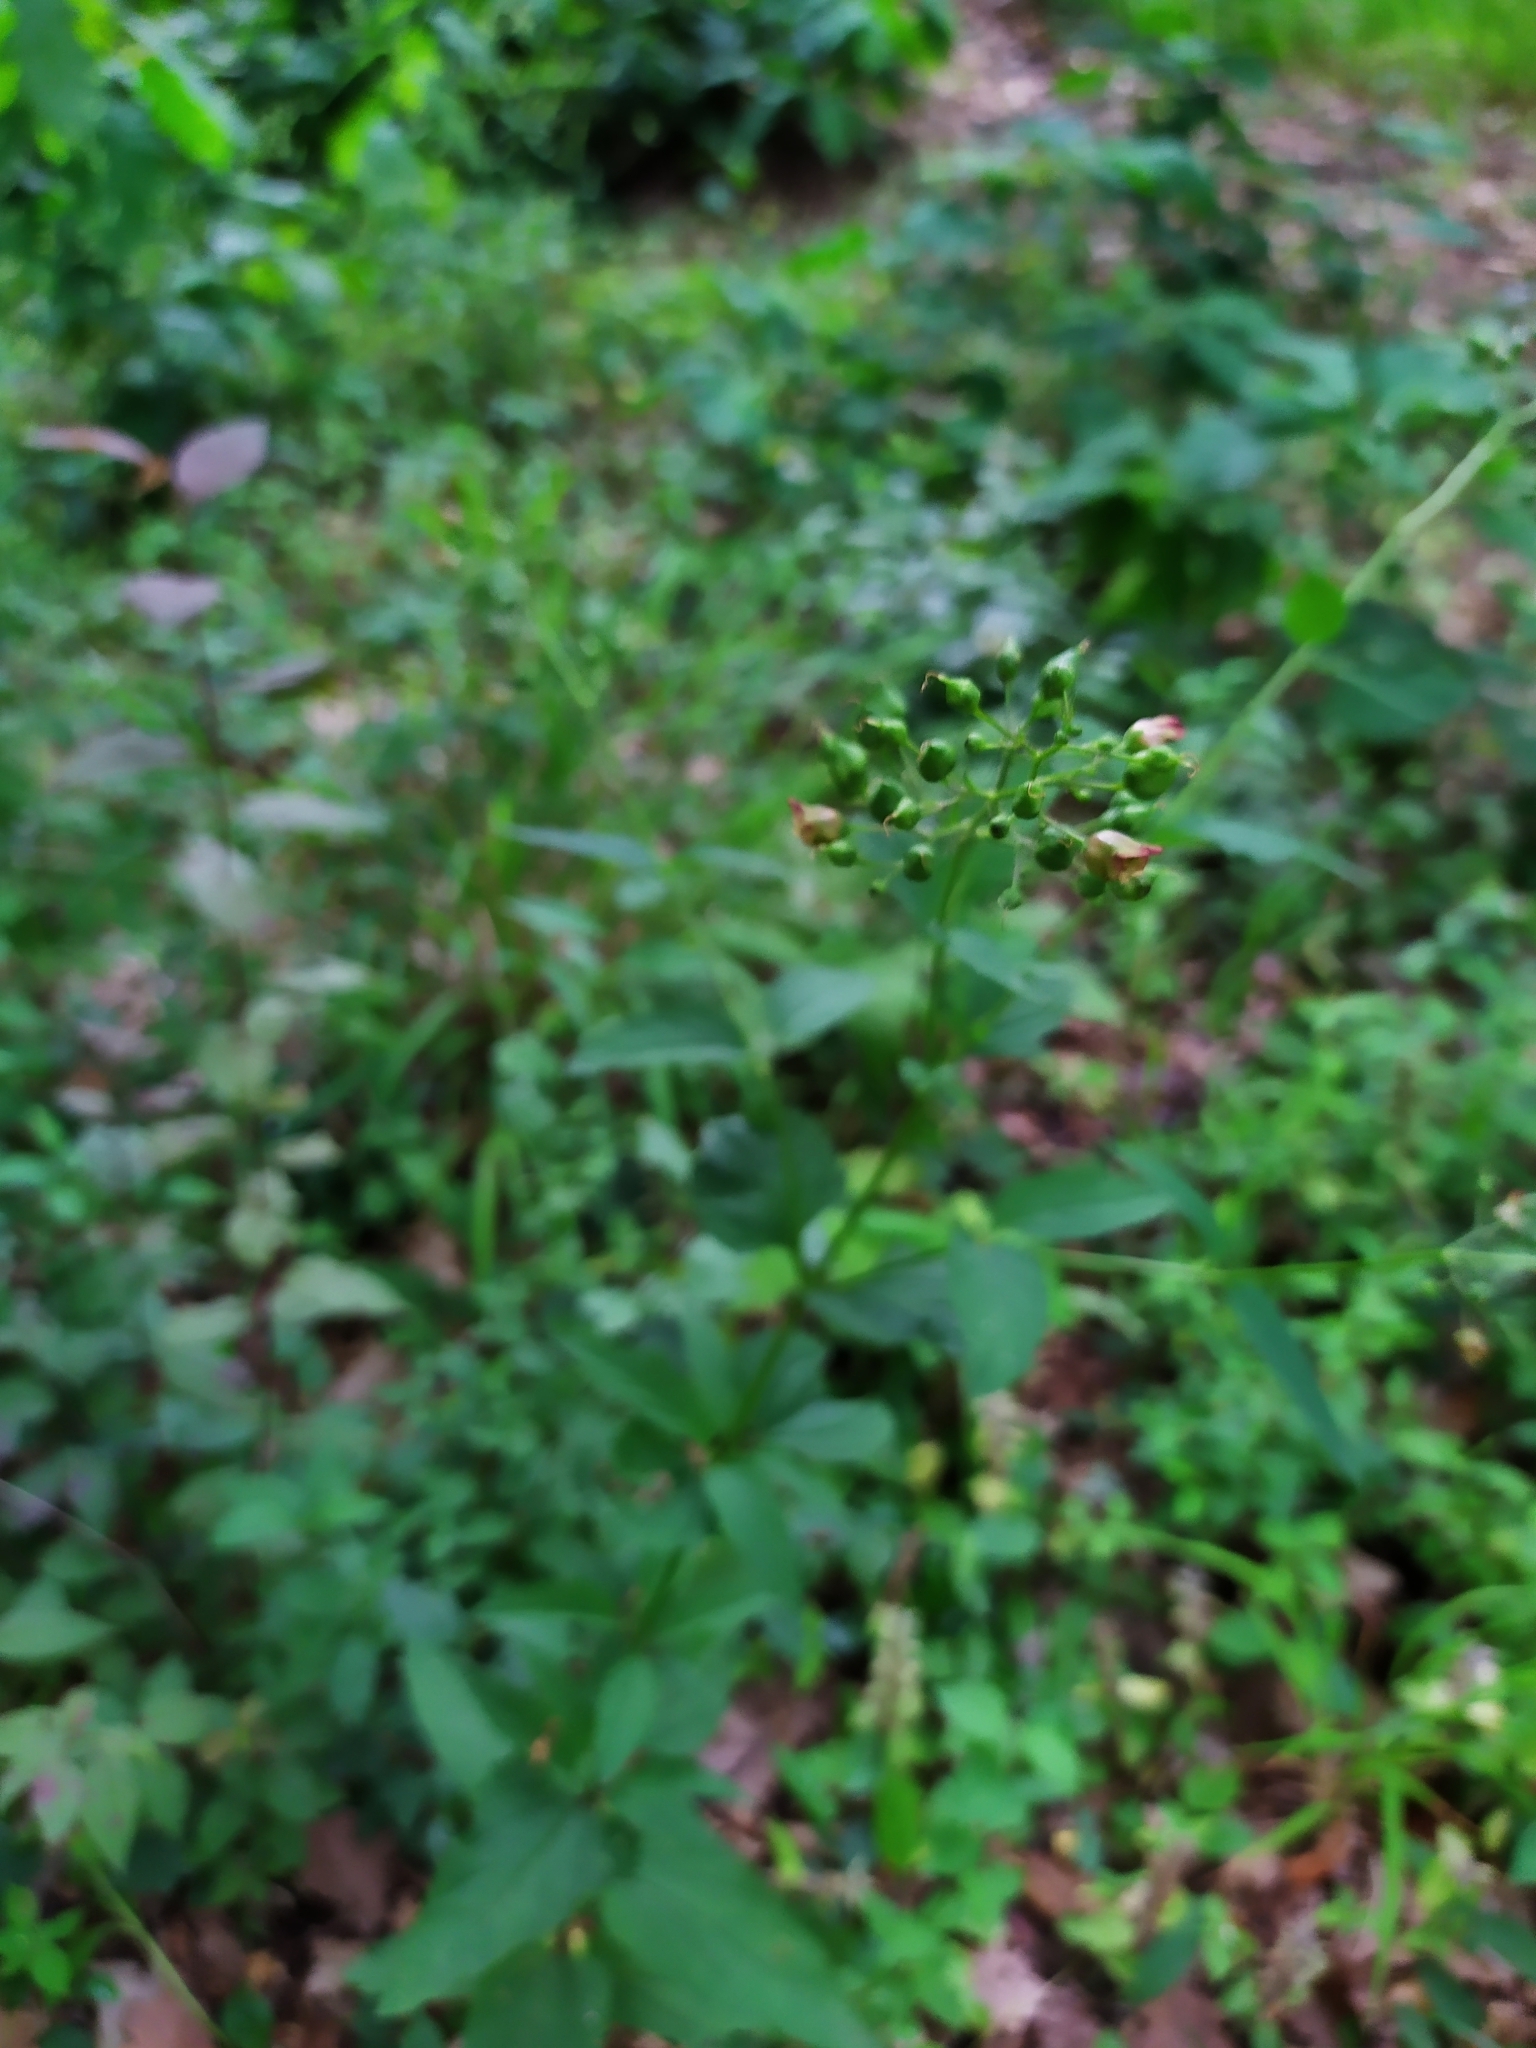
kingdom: Plantae
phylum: Tracheophyta
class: Magnoliopsida
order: Lamiales
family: Scrophulariaceae
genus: Scrophularia
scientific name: Scrophularia nodosa
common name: Common figwort
